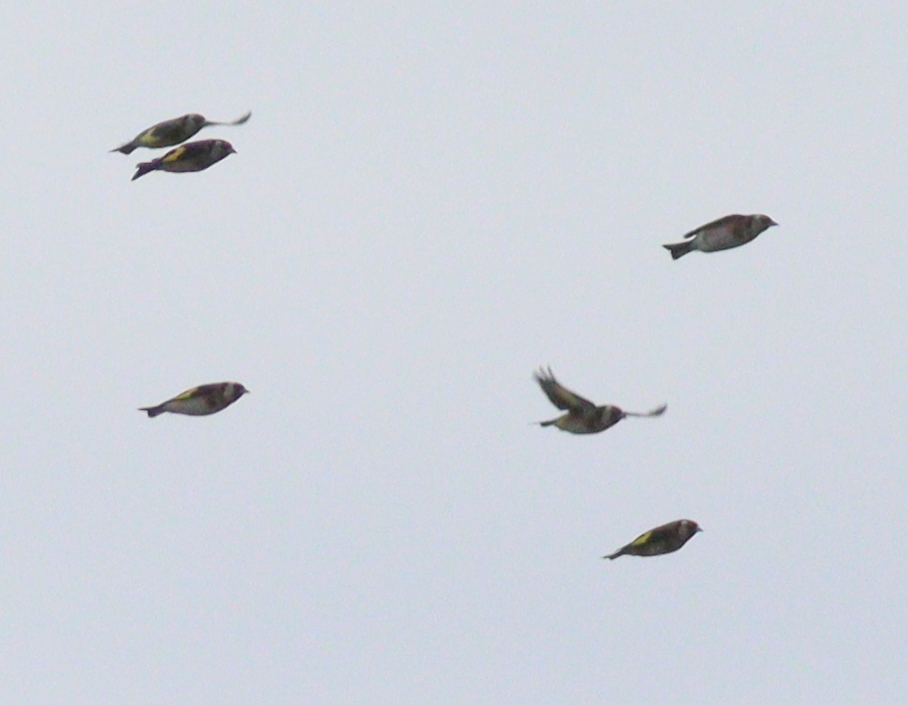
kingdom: Animalia
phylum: Chordata
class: Aves
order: Passeriformes
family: Fringillidae
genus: Carduelis
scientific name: Carduelis carduelis
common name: European goldfinch
